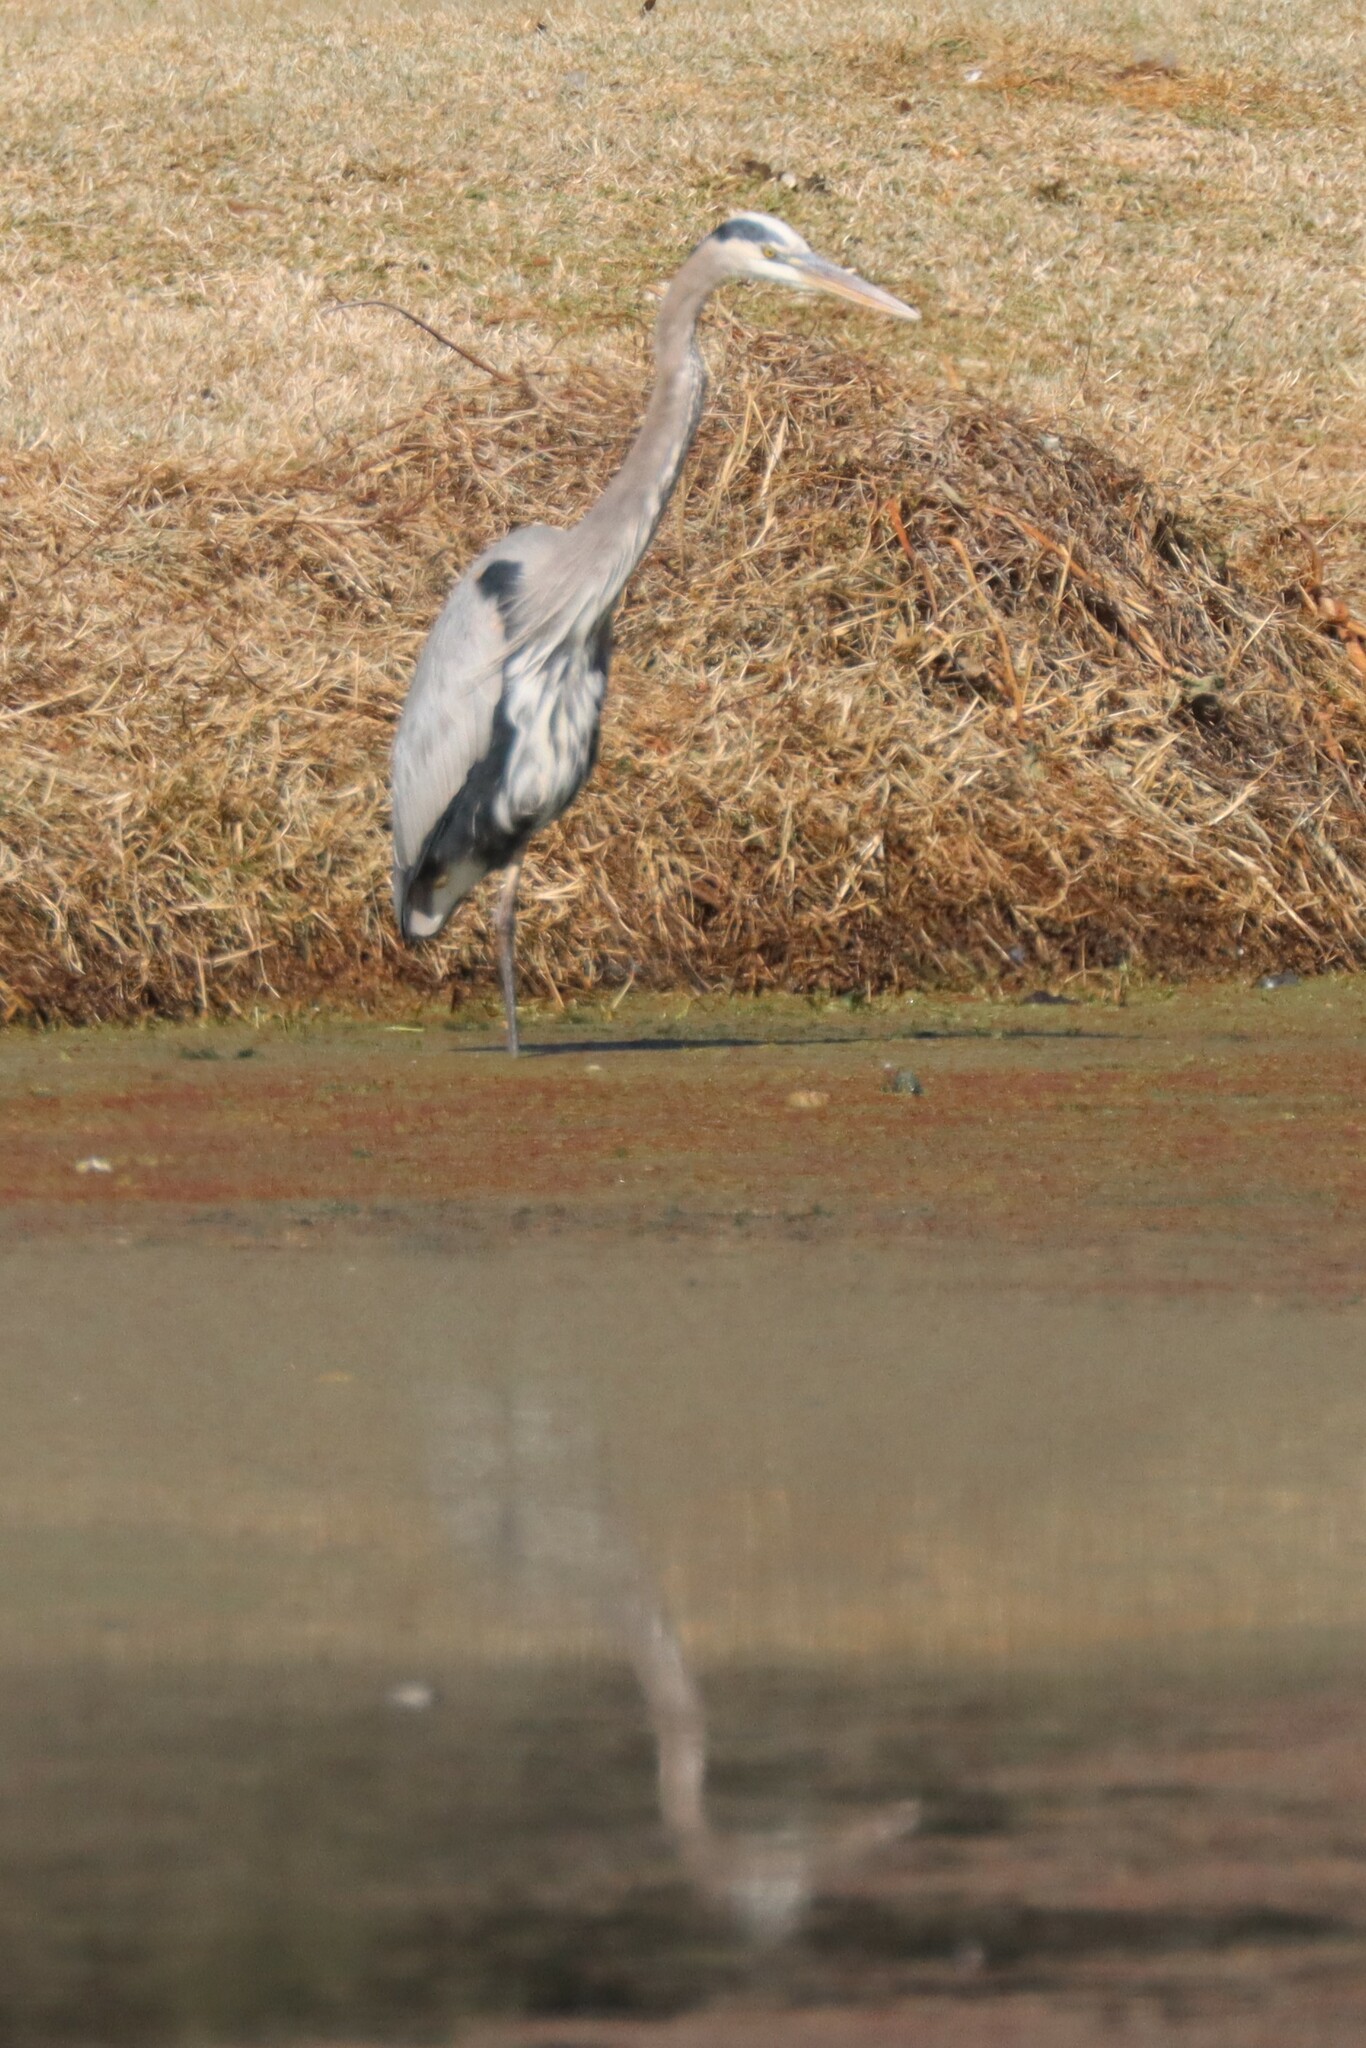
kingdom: Animalia
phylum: Chordata
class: Aves
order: Pelecaniformes
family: Ardeidae
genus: Ardea
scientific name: Ardea herodias
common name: Great blue heron
